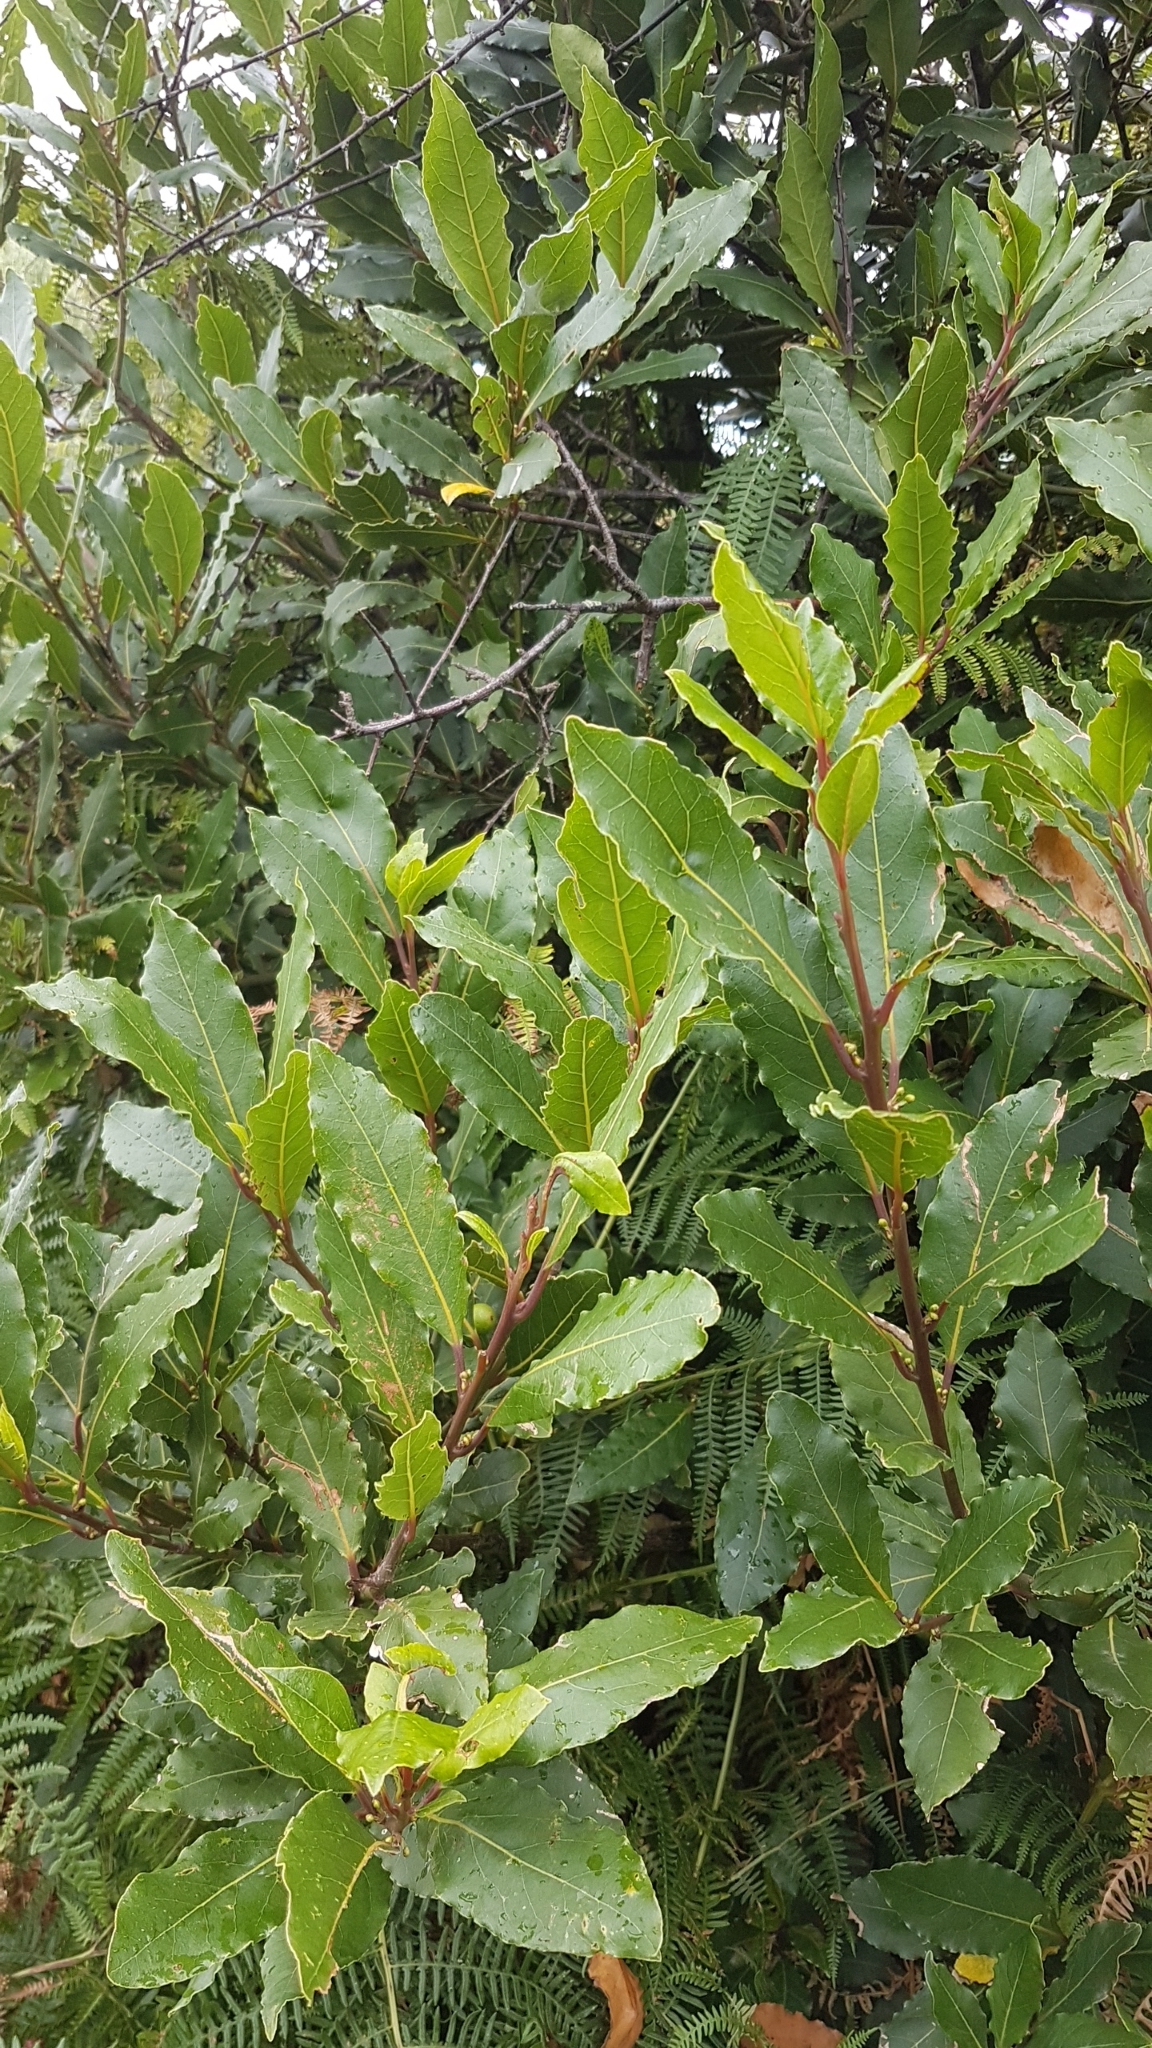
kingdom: Plantae
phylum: Tracheophyta
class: Magnoliopsida
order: Laurales
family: Lauraceae
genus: Laurus
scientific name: Laurus nobilis
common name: Bay
